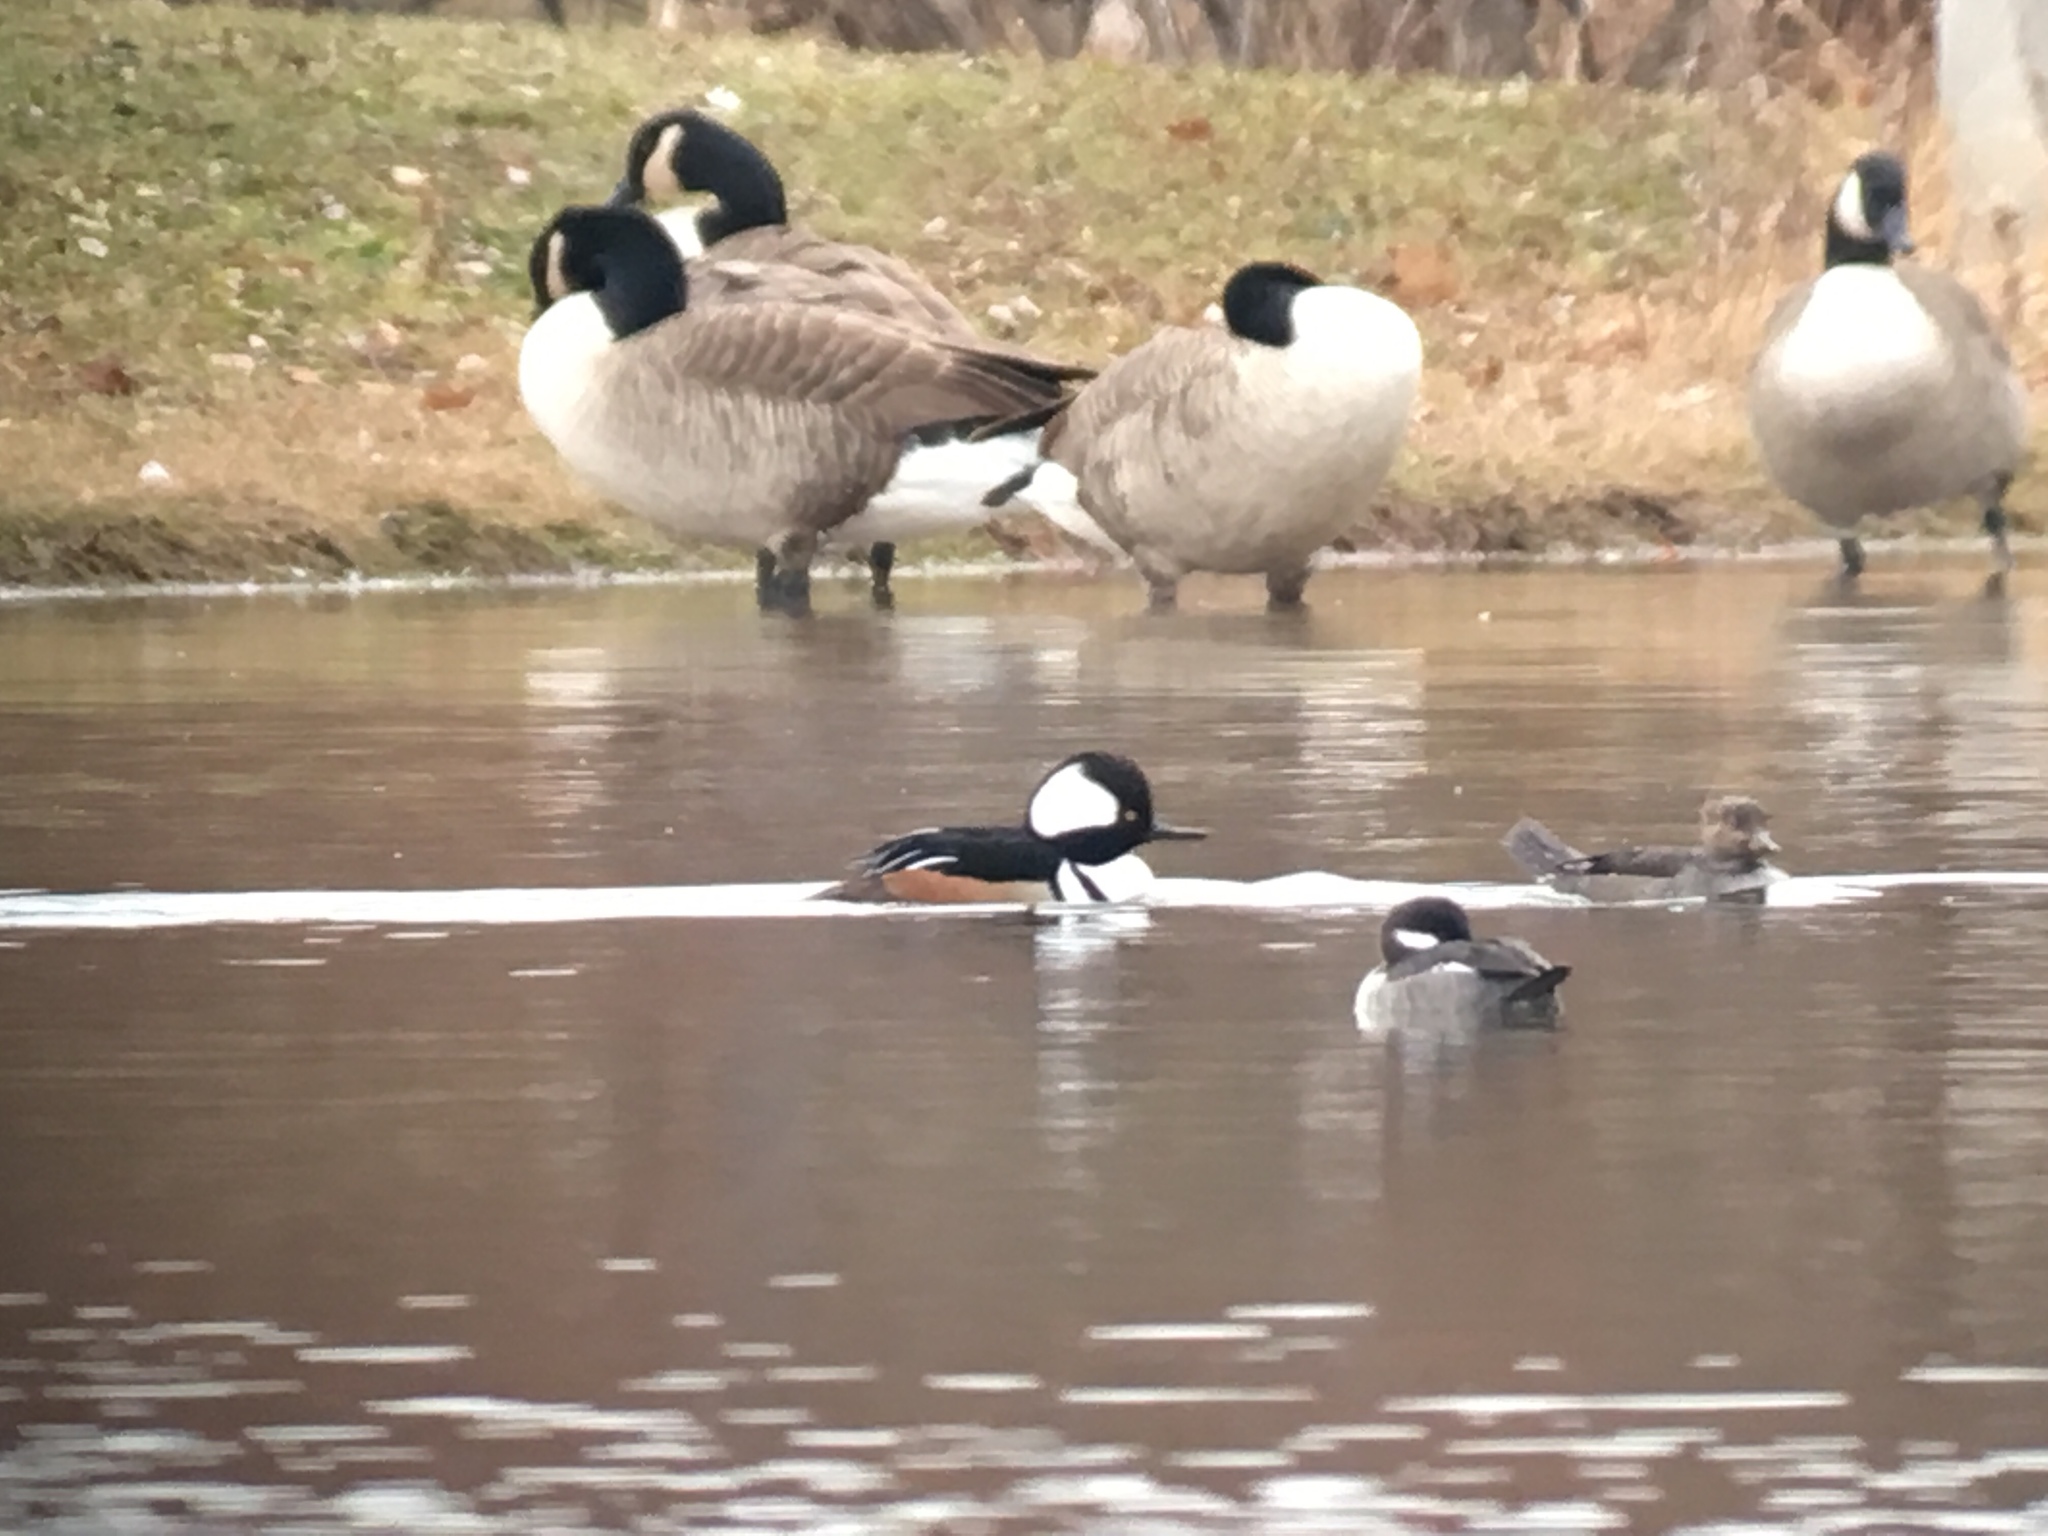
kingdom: Animalia
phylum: Chordata
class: Aves
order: Anseriformes
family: Anatidae
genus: Lophodytes
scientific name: Lophodytes cucullatus
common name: Hooded merganser
